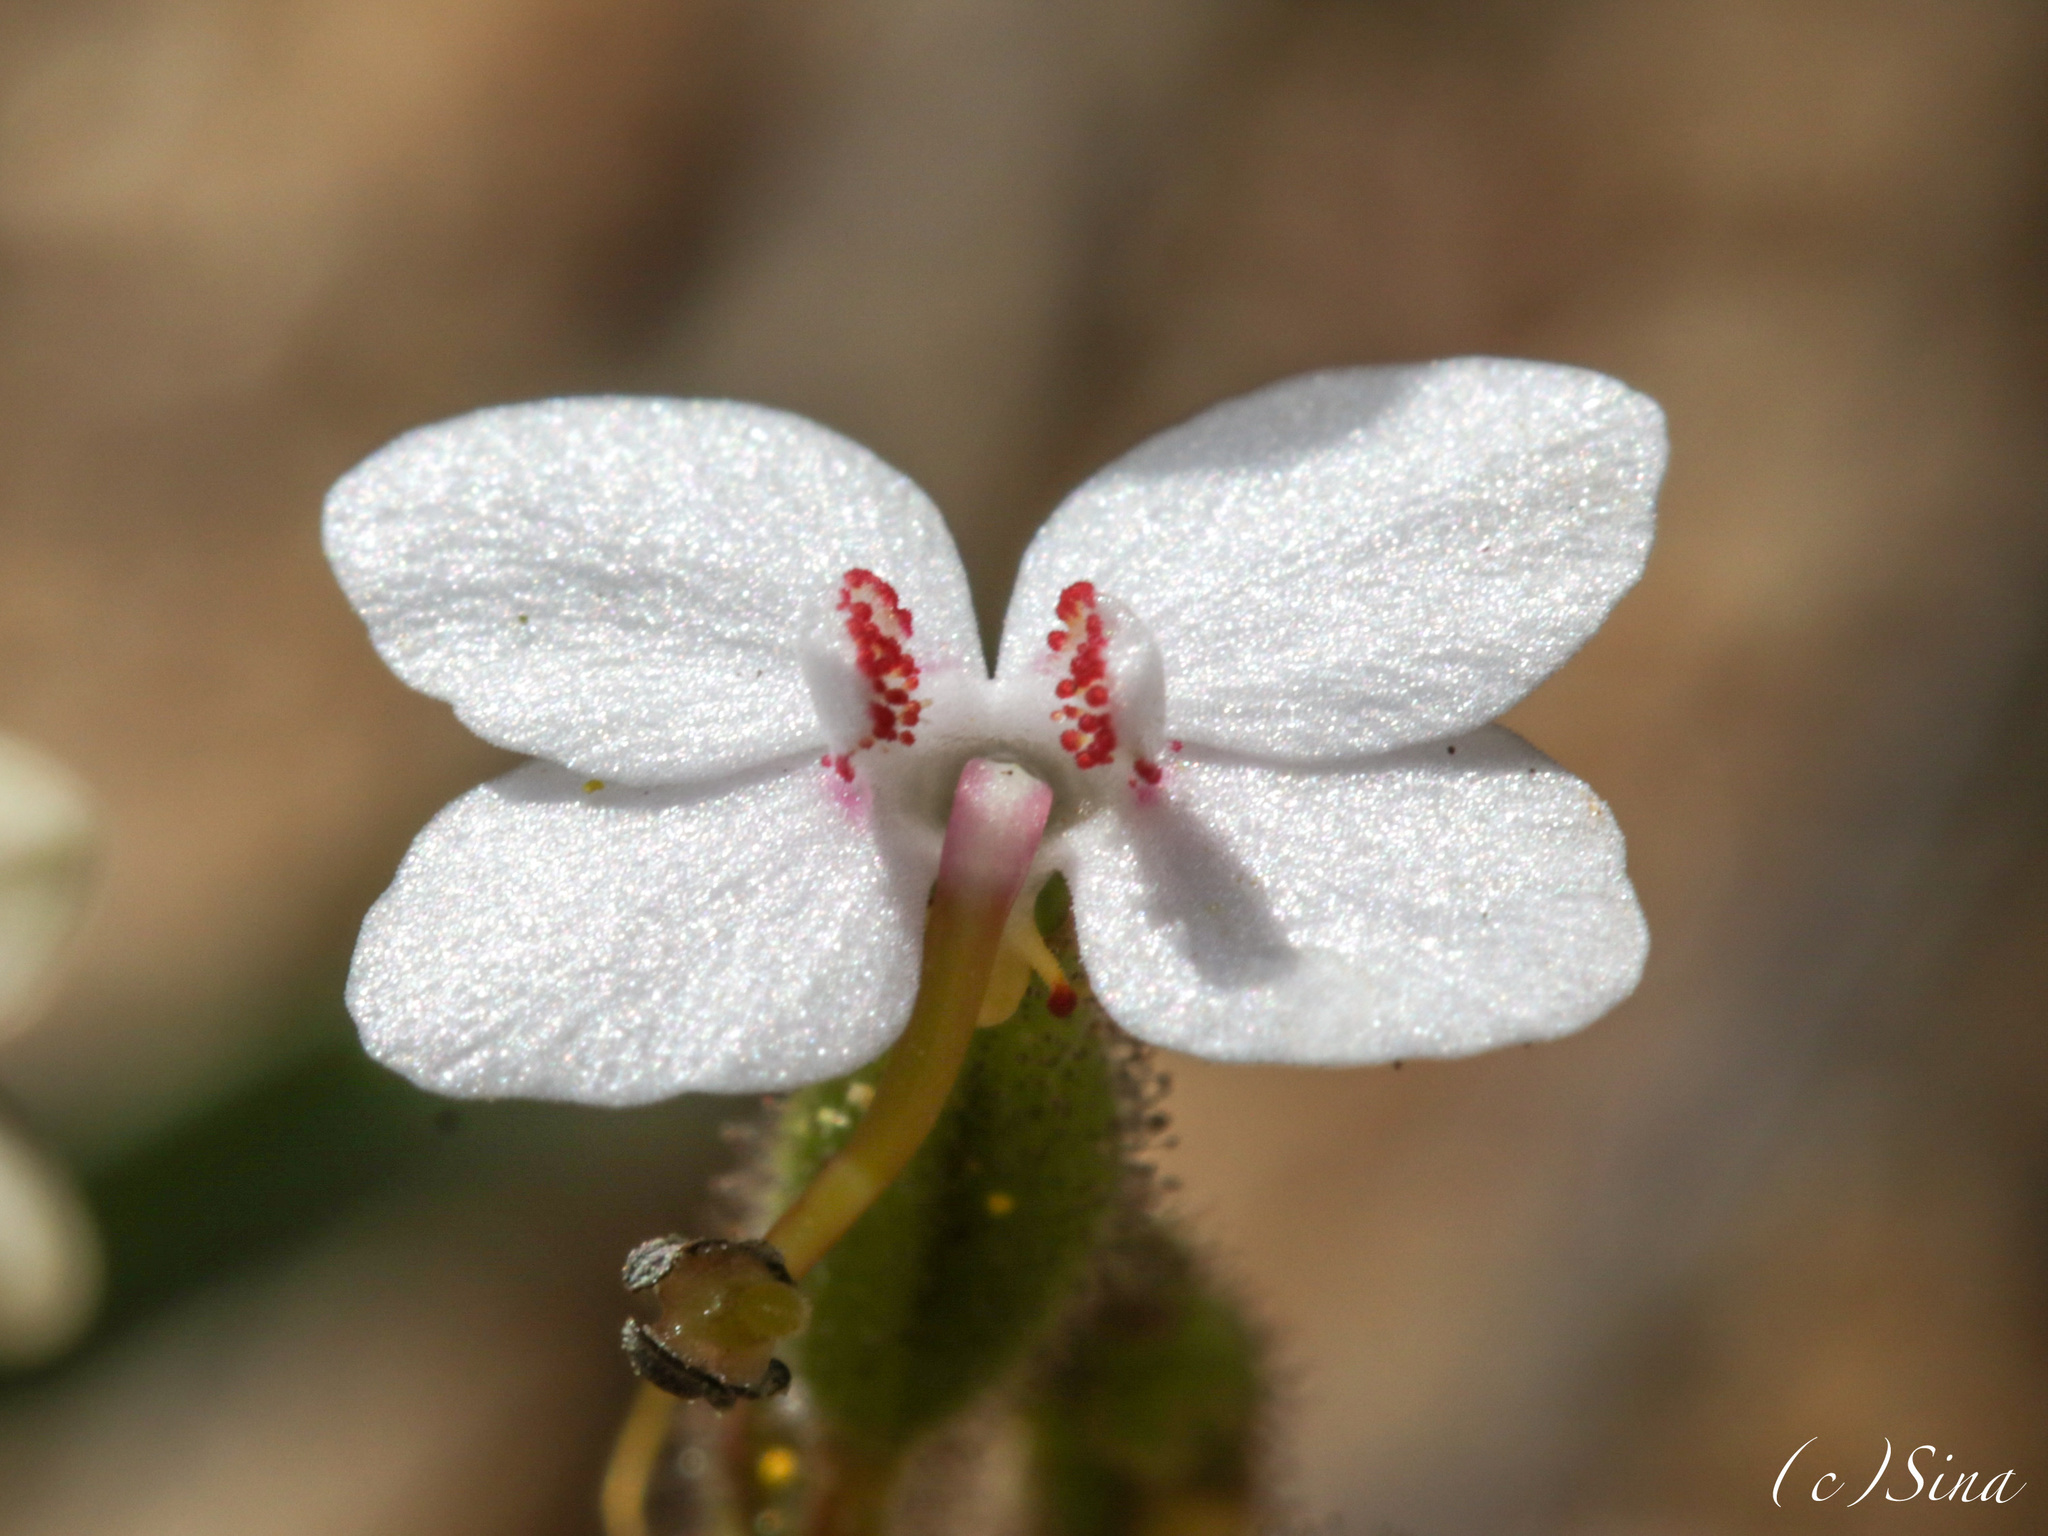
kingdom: Plantae
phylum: Tracheophyta
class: Magnoliopsida
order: Asterales
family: Stylidiaceae
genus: Stylidium
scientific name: Stylidium yilgarnense
